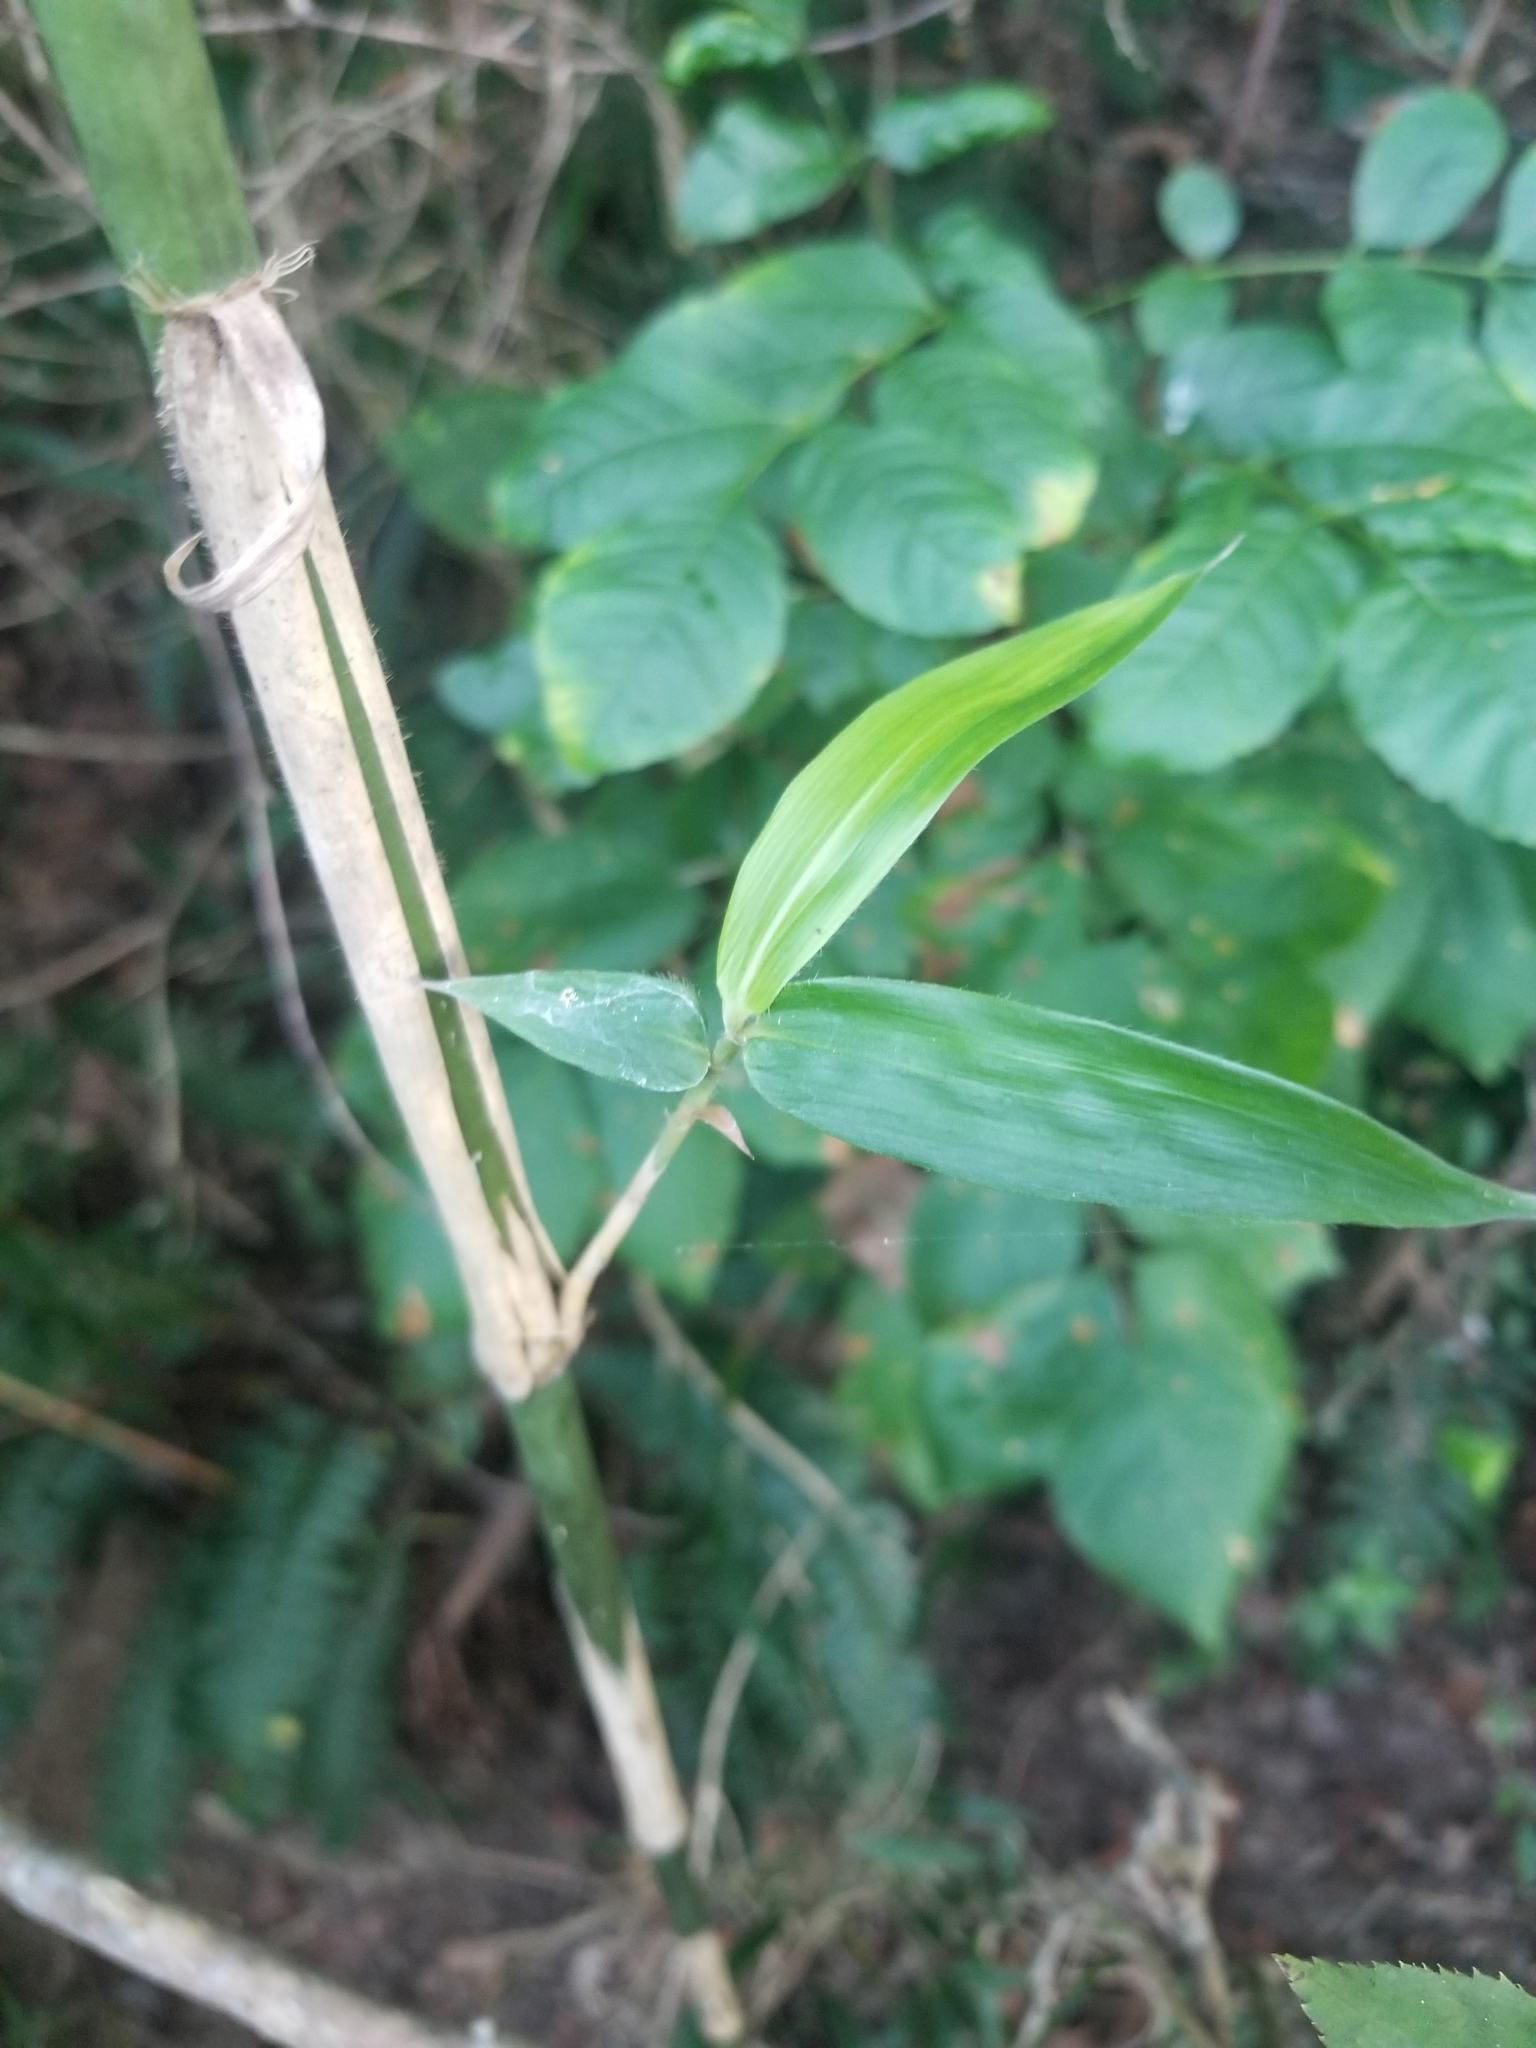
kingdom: Plantae
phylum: Tracheophyta
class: Liliopsida
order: Poales
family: Poaceae
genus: Arundinaria
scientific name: Arundinaria gigantea
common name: Giant cane
